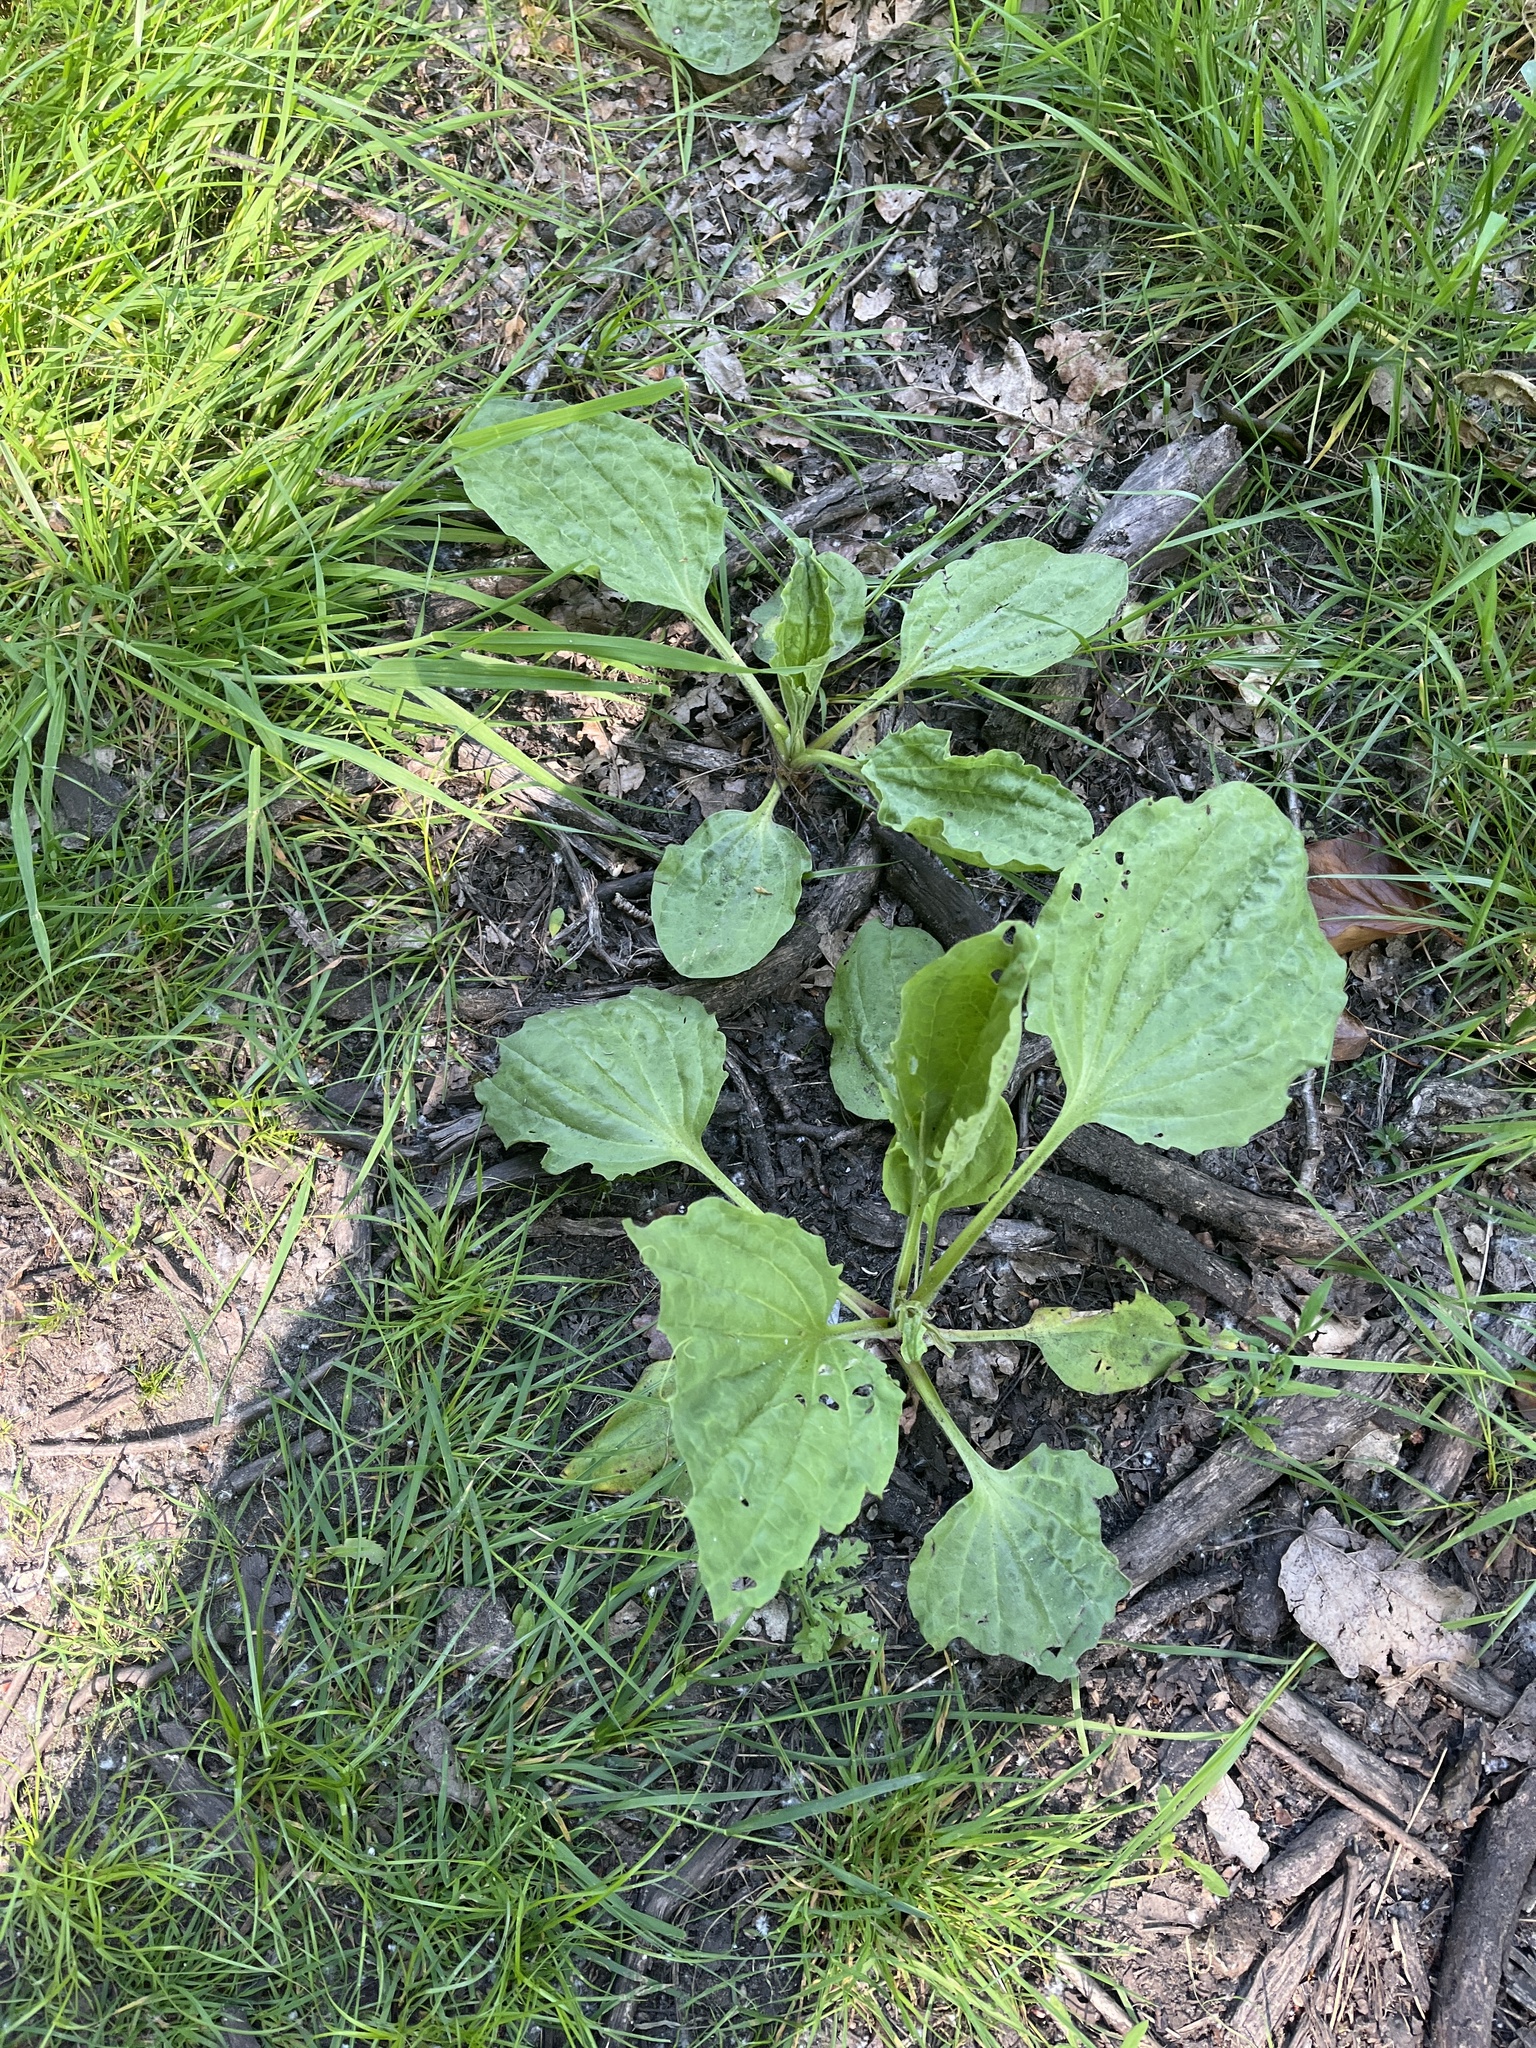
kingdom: Plantae
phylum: Tracheophyta
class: Magnoliopsida
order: Lamiales
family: Plantaginaceae
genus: Plantago
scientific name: Plantago major
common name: Common plantain
